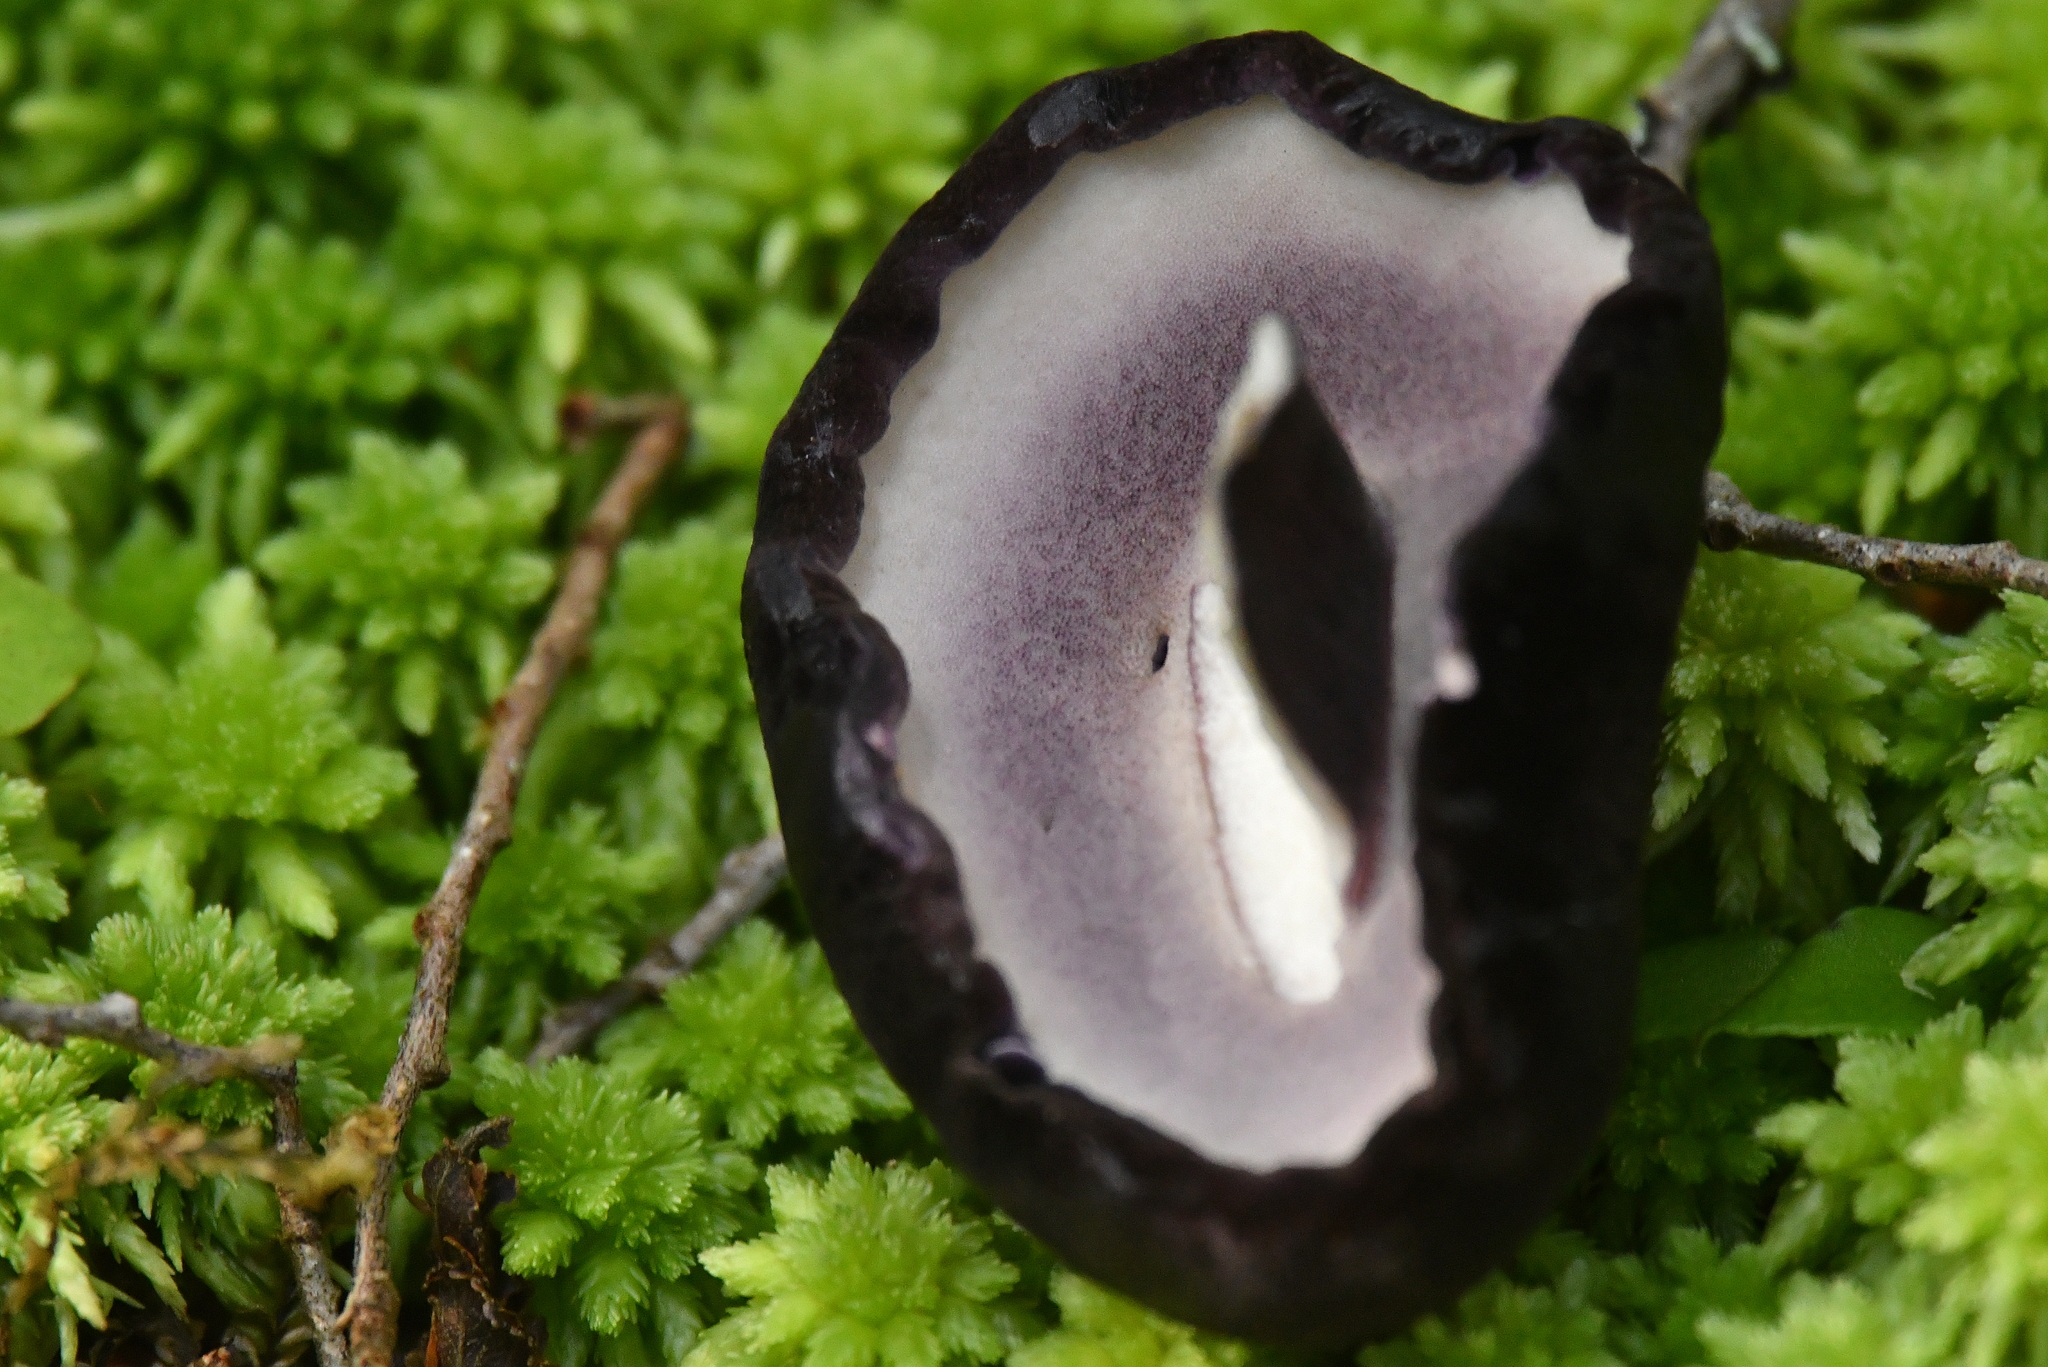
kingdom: Fungi
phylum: Basidiomycota
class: Agaricomycetes
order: Boletales
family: Boletaceae
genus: Porphyrellus
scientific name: Porphyrellus formosus
